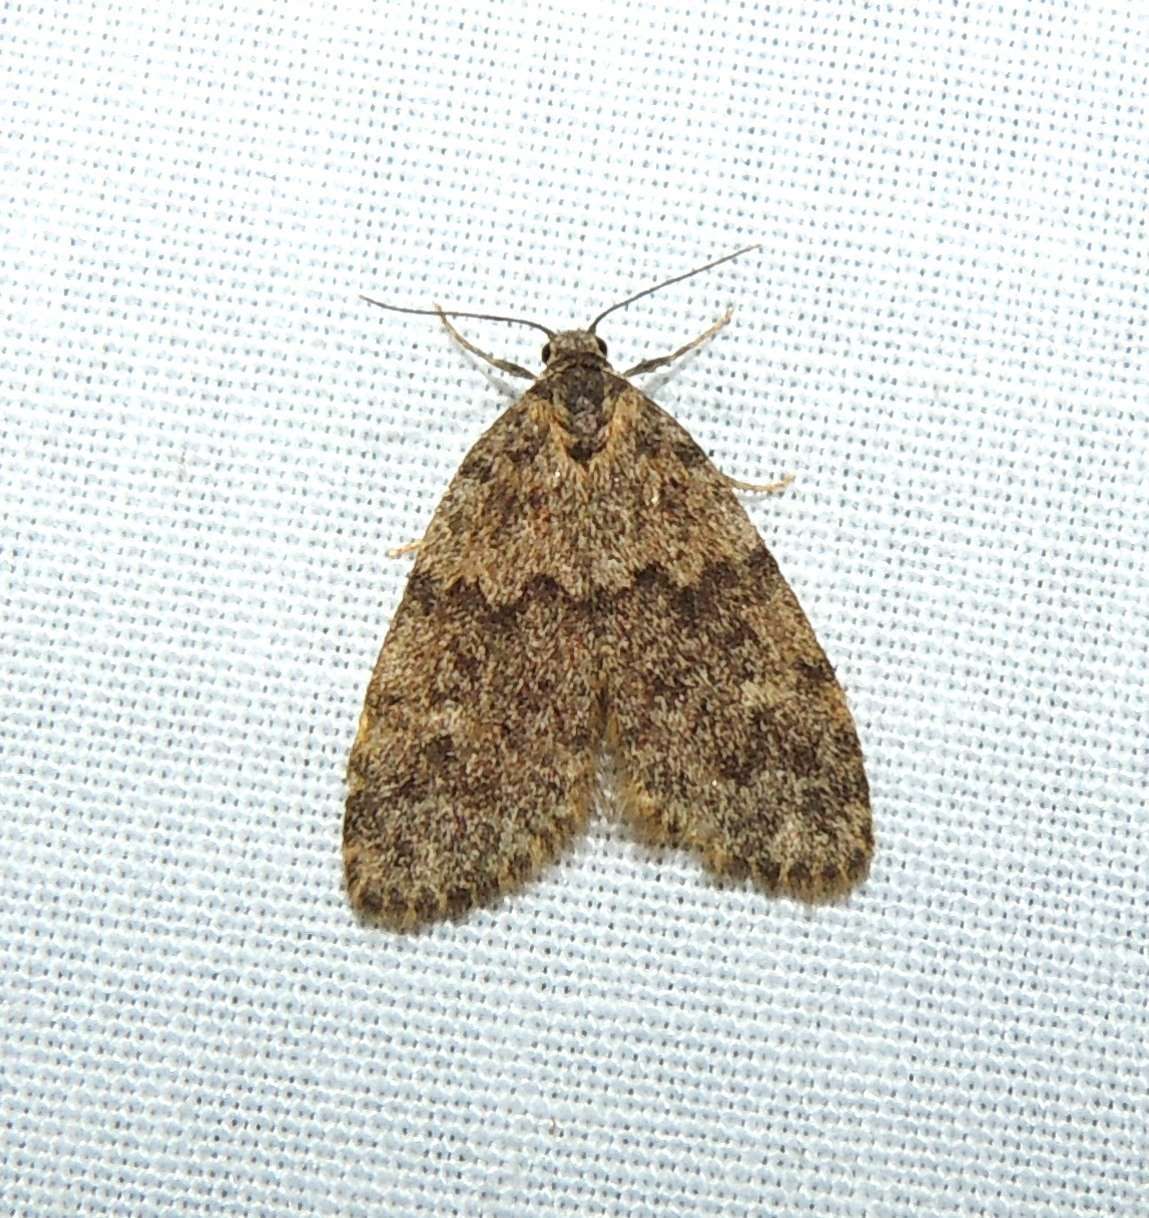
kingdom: Animalia
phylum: Arthropoda
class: Insecta
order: Lepidoptera
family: Erebidae
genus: Halone
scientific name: Halone consolatrix
